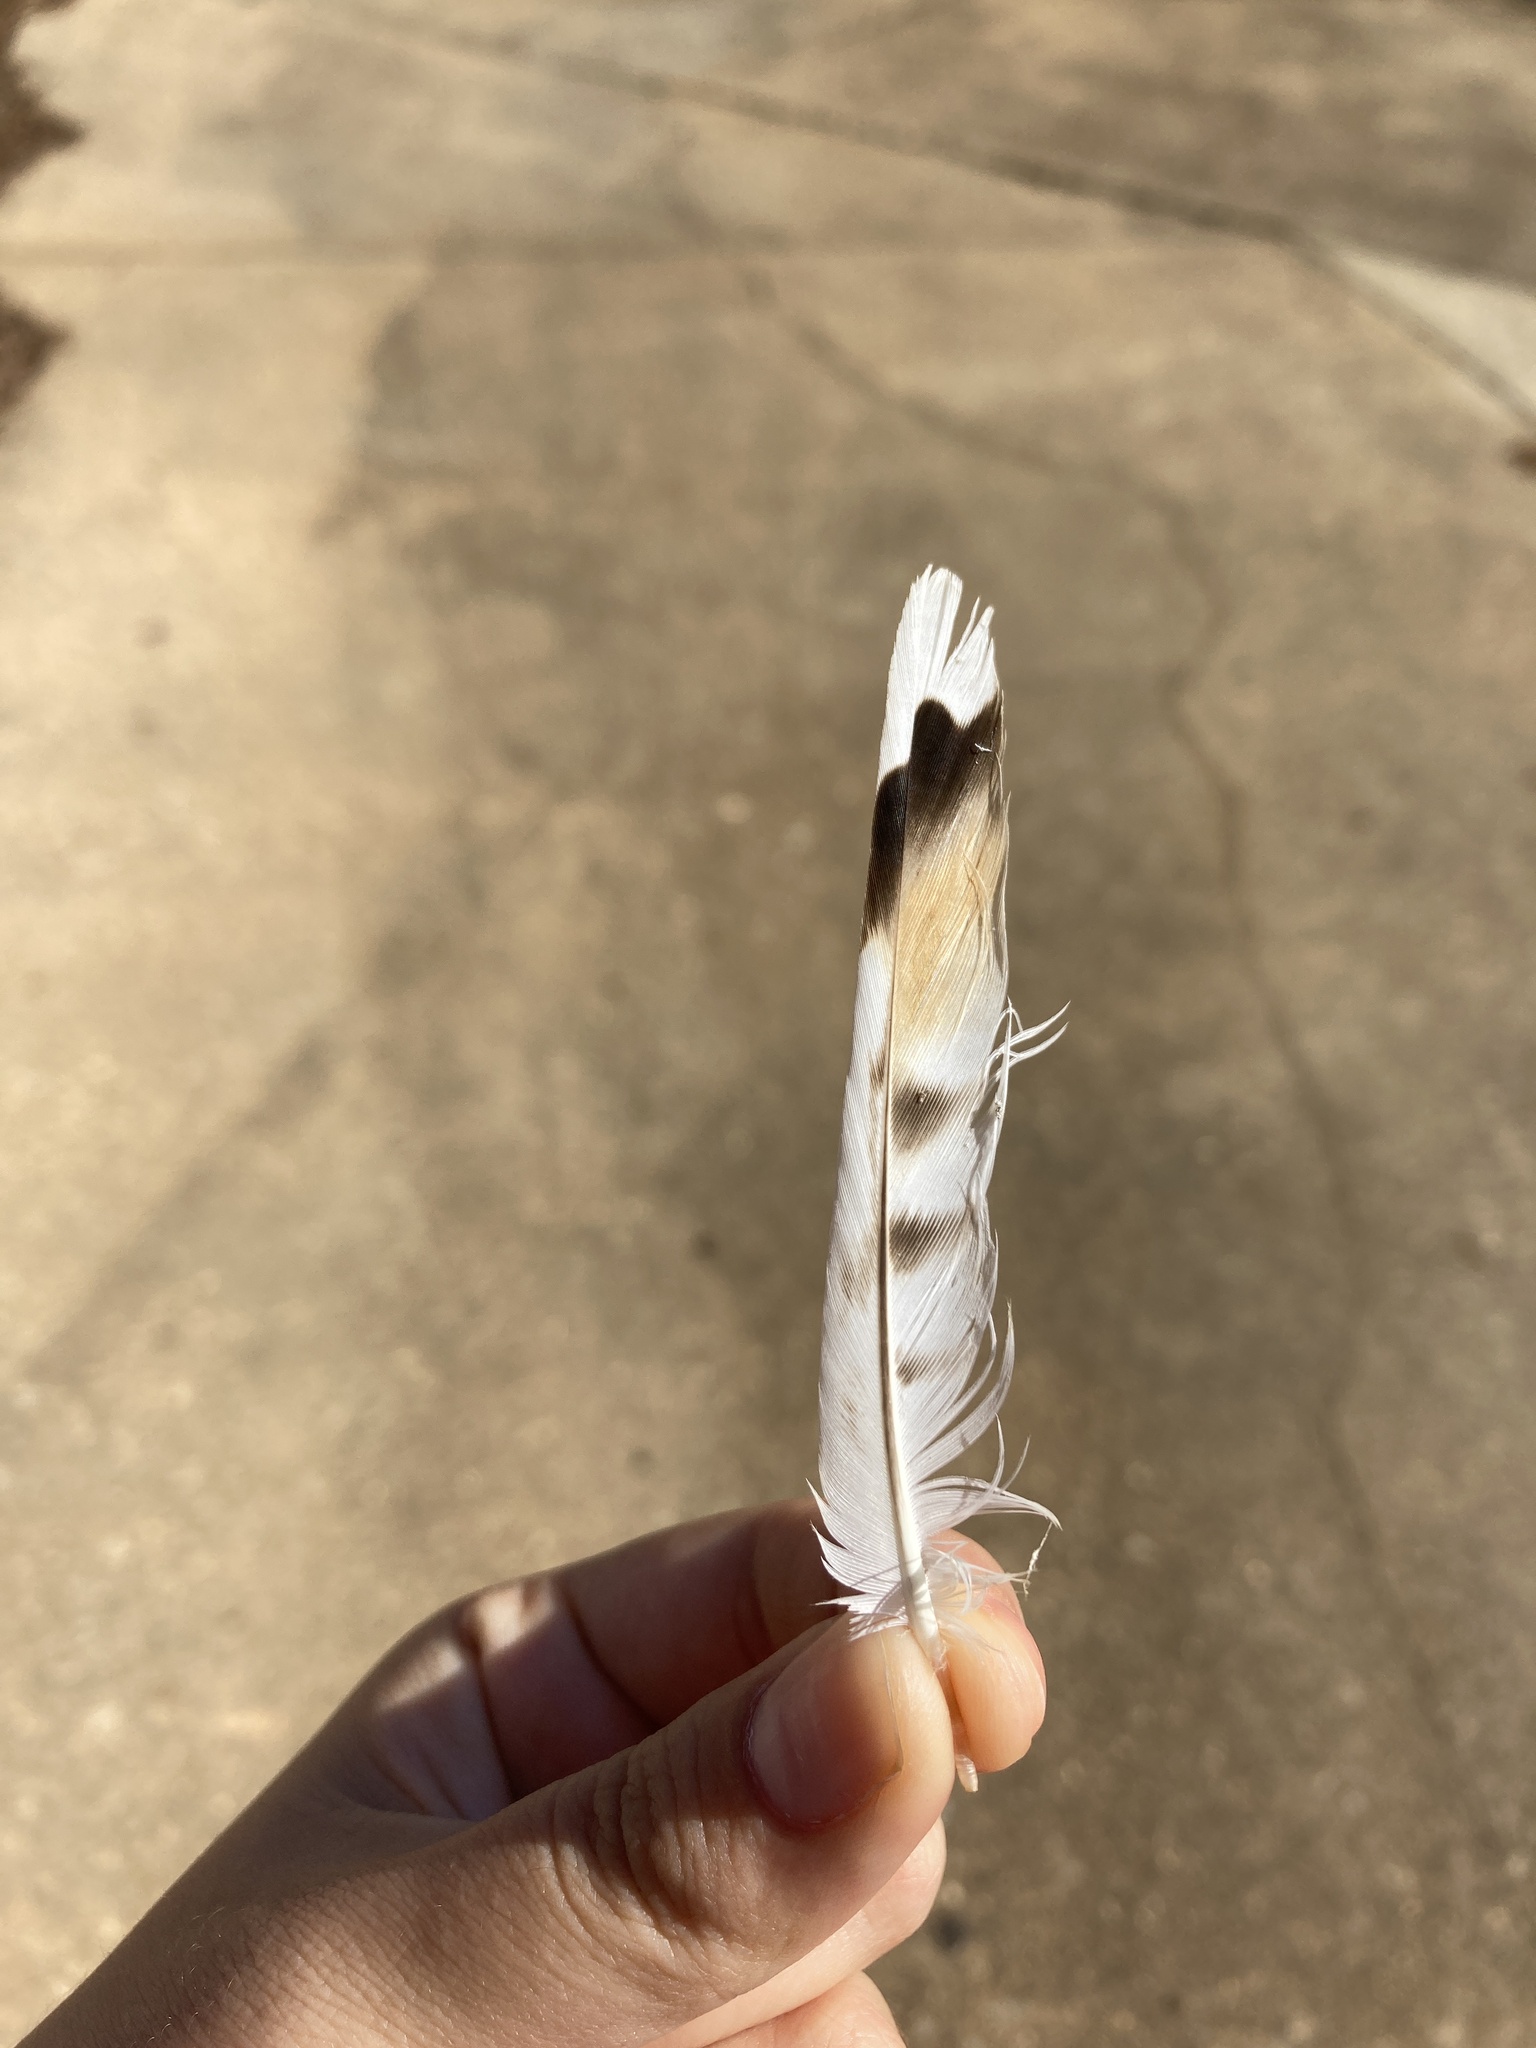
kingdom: Animalia
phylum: Chordata
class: Aves
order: Charadriiformes
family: Charadriidae
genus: Charadrius
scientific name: Charadrius vociferus
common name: Killdeer
